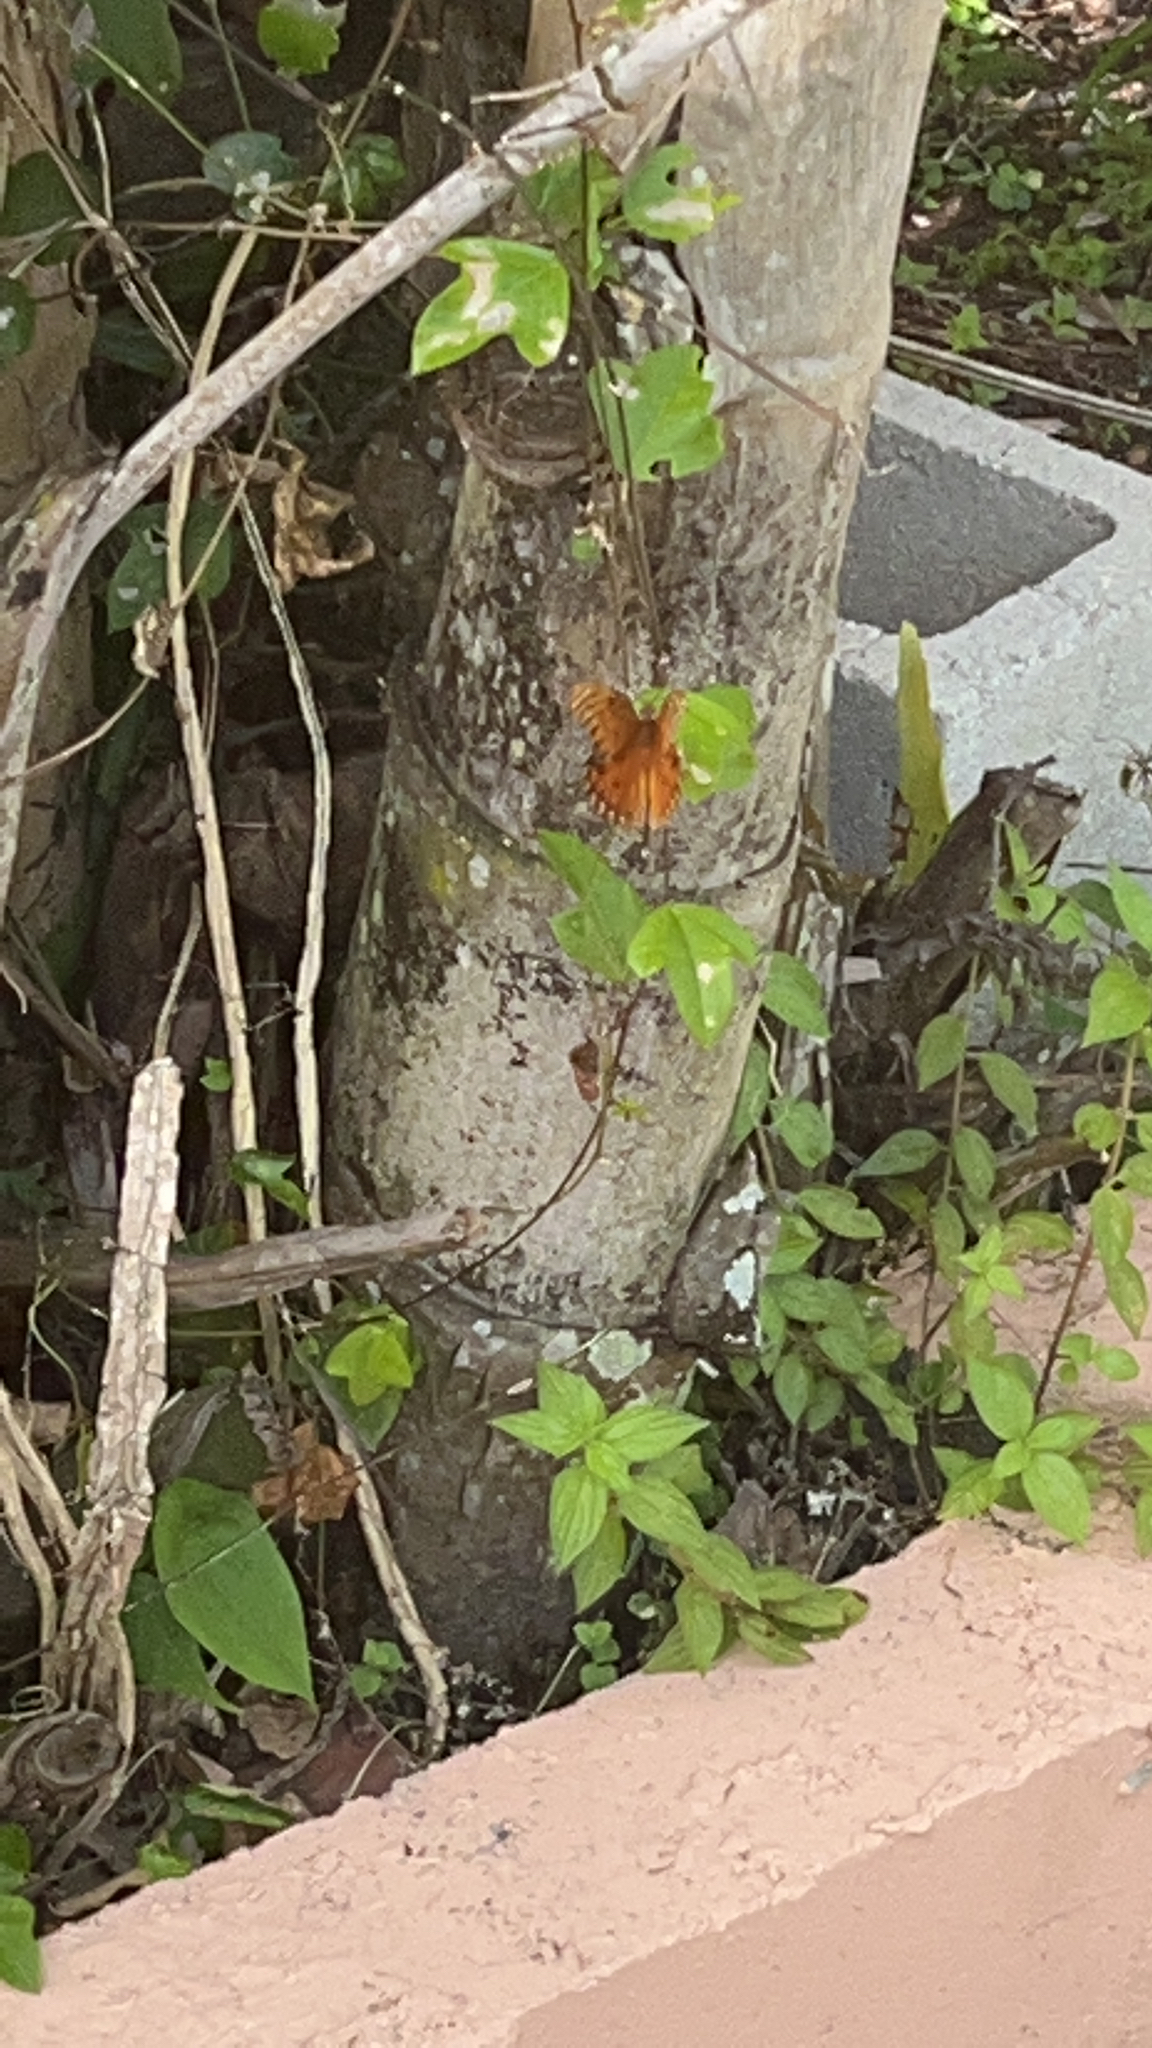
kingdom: Animalia
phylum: Arthropoda
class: Insecta
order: Lepidoptera
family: Nymphalidae
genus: Dione
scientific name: Dione vanillae
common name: Gulf fritillary
